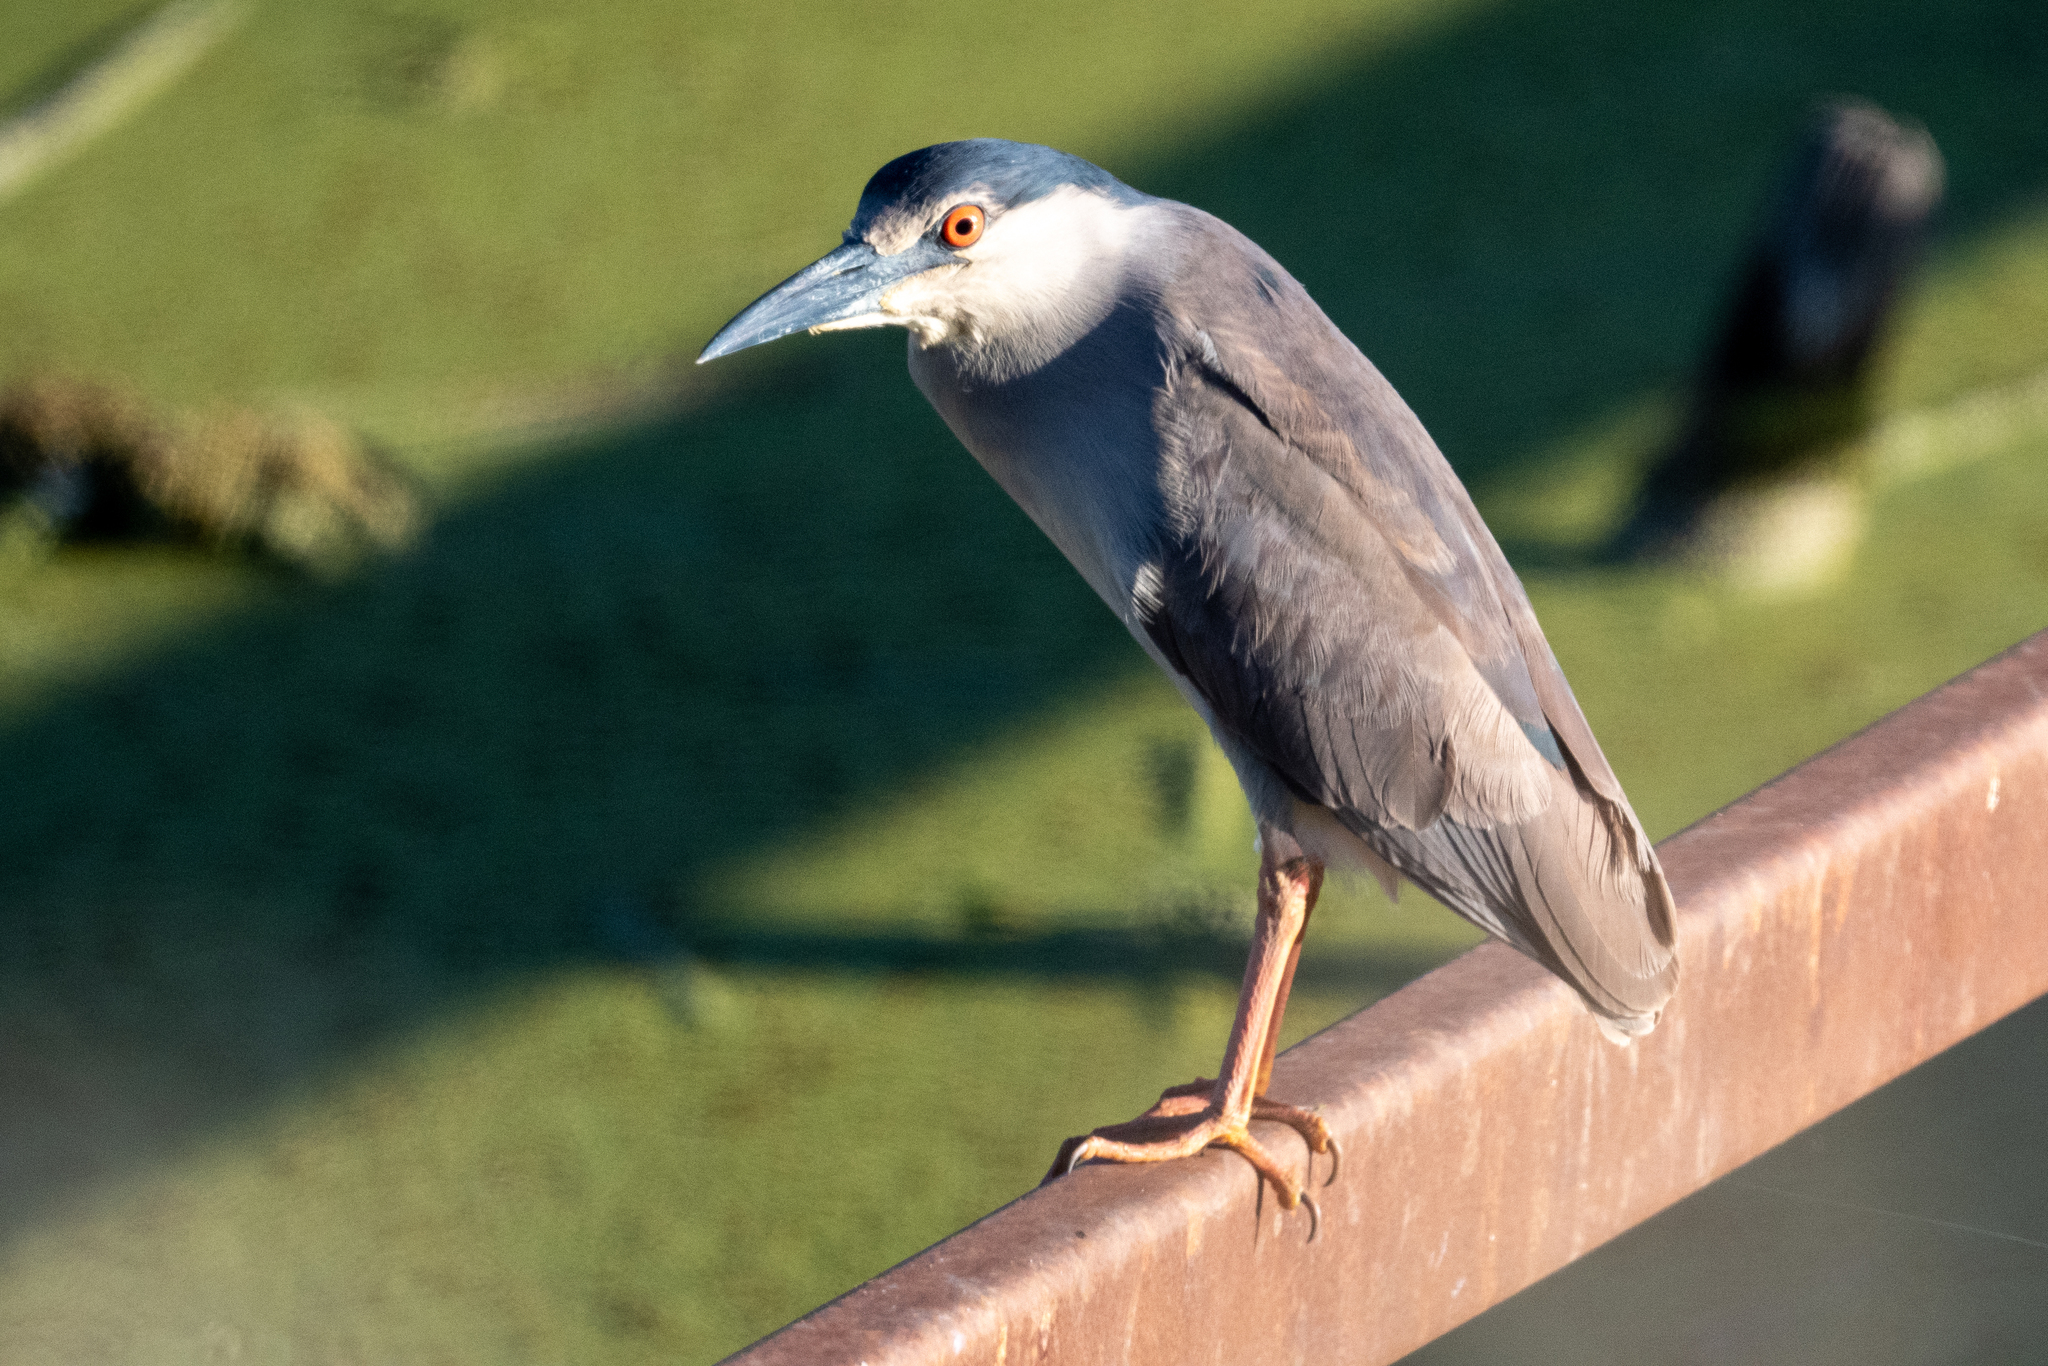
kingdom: Animalia
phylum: Chordata
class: Aves
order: Pelecaniformes
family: Ardeidae
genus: Nycticorax
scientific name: Nycticorax nycticorax
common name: Black-crowned night heron
